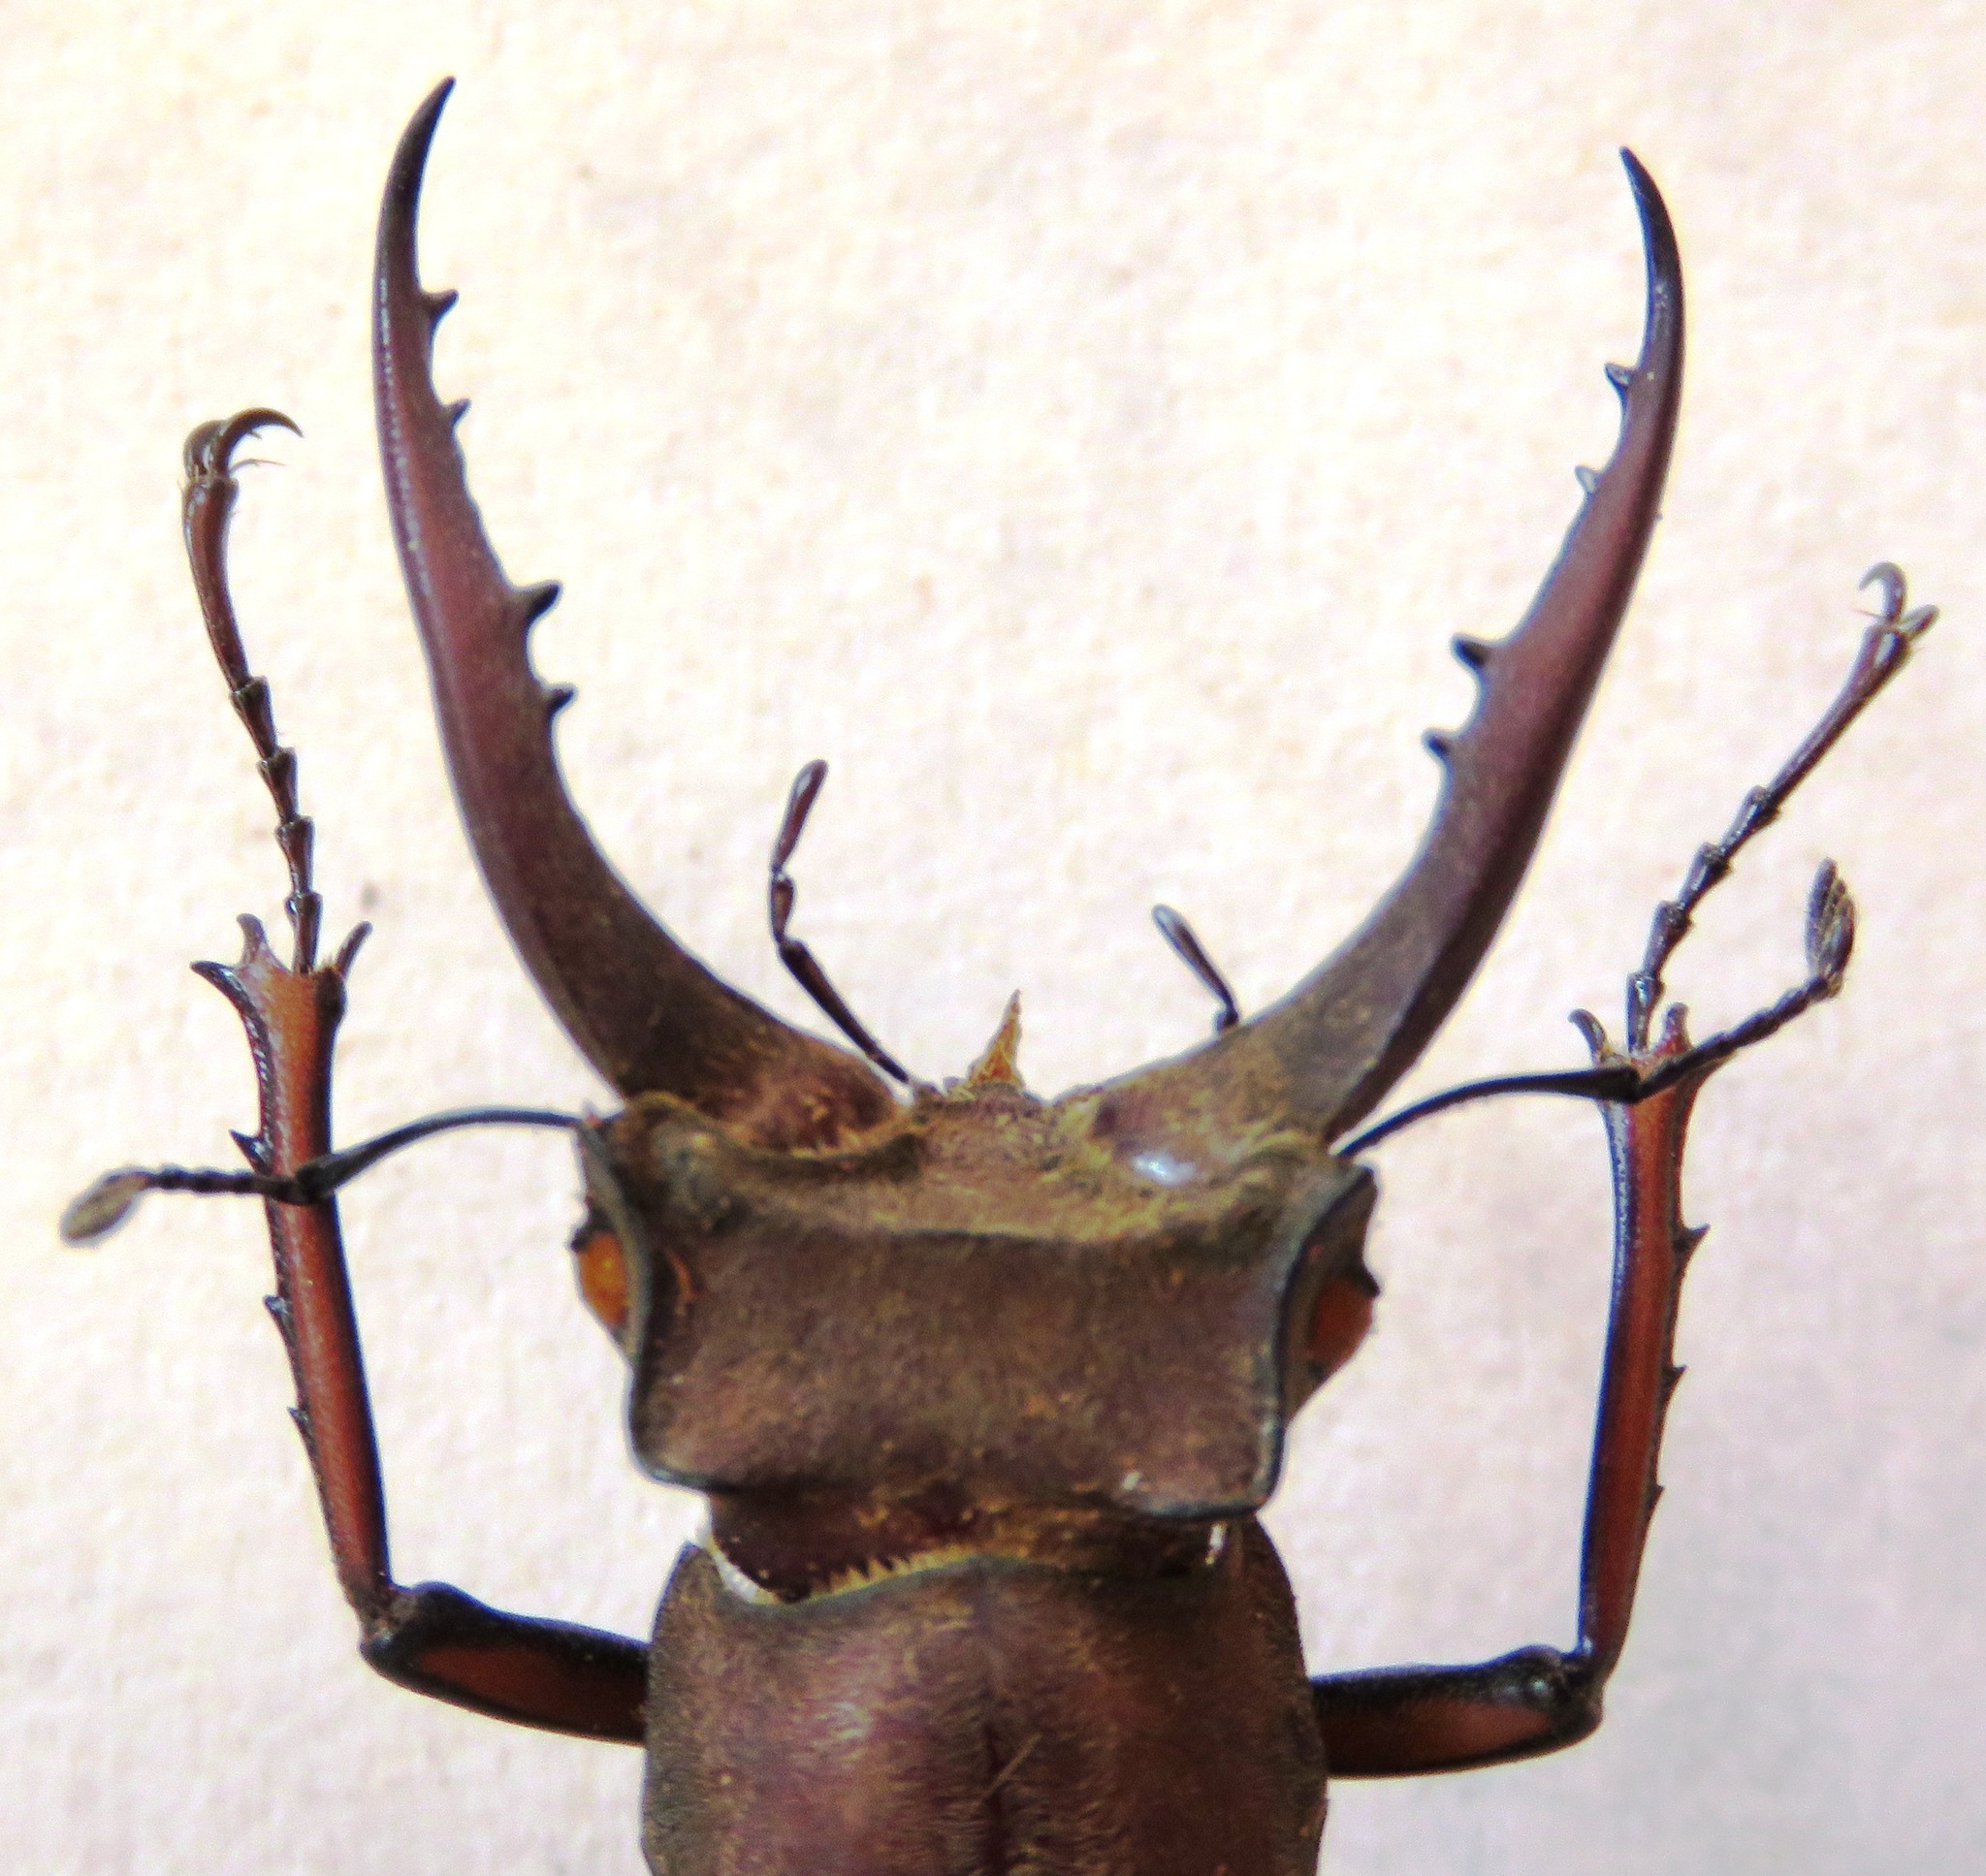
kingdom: Animalia
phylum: Arthropoda
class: Insecta
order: Coleoptera
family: Lucanidae
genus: Lucanus
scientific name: Lucanus luci
